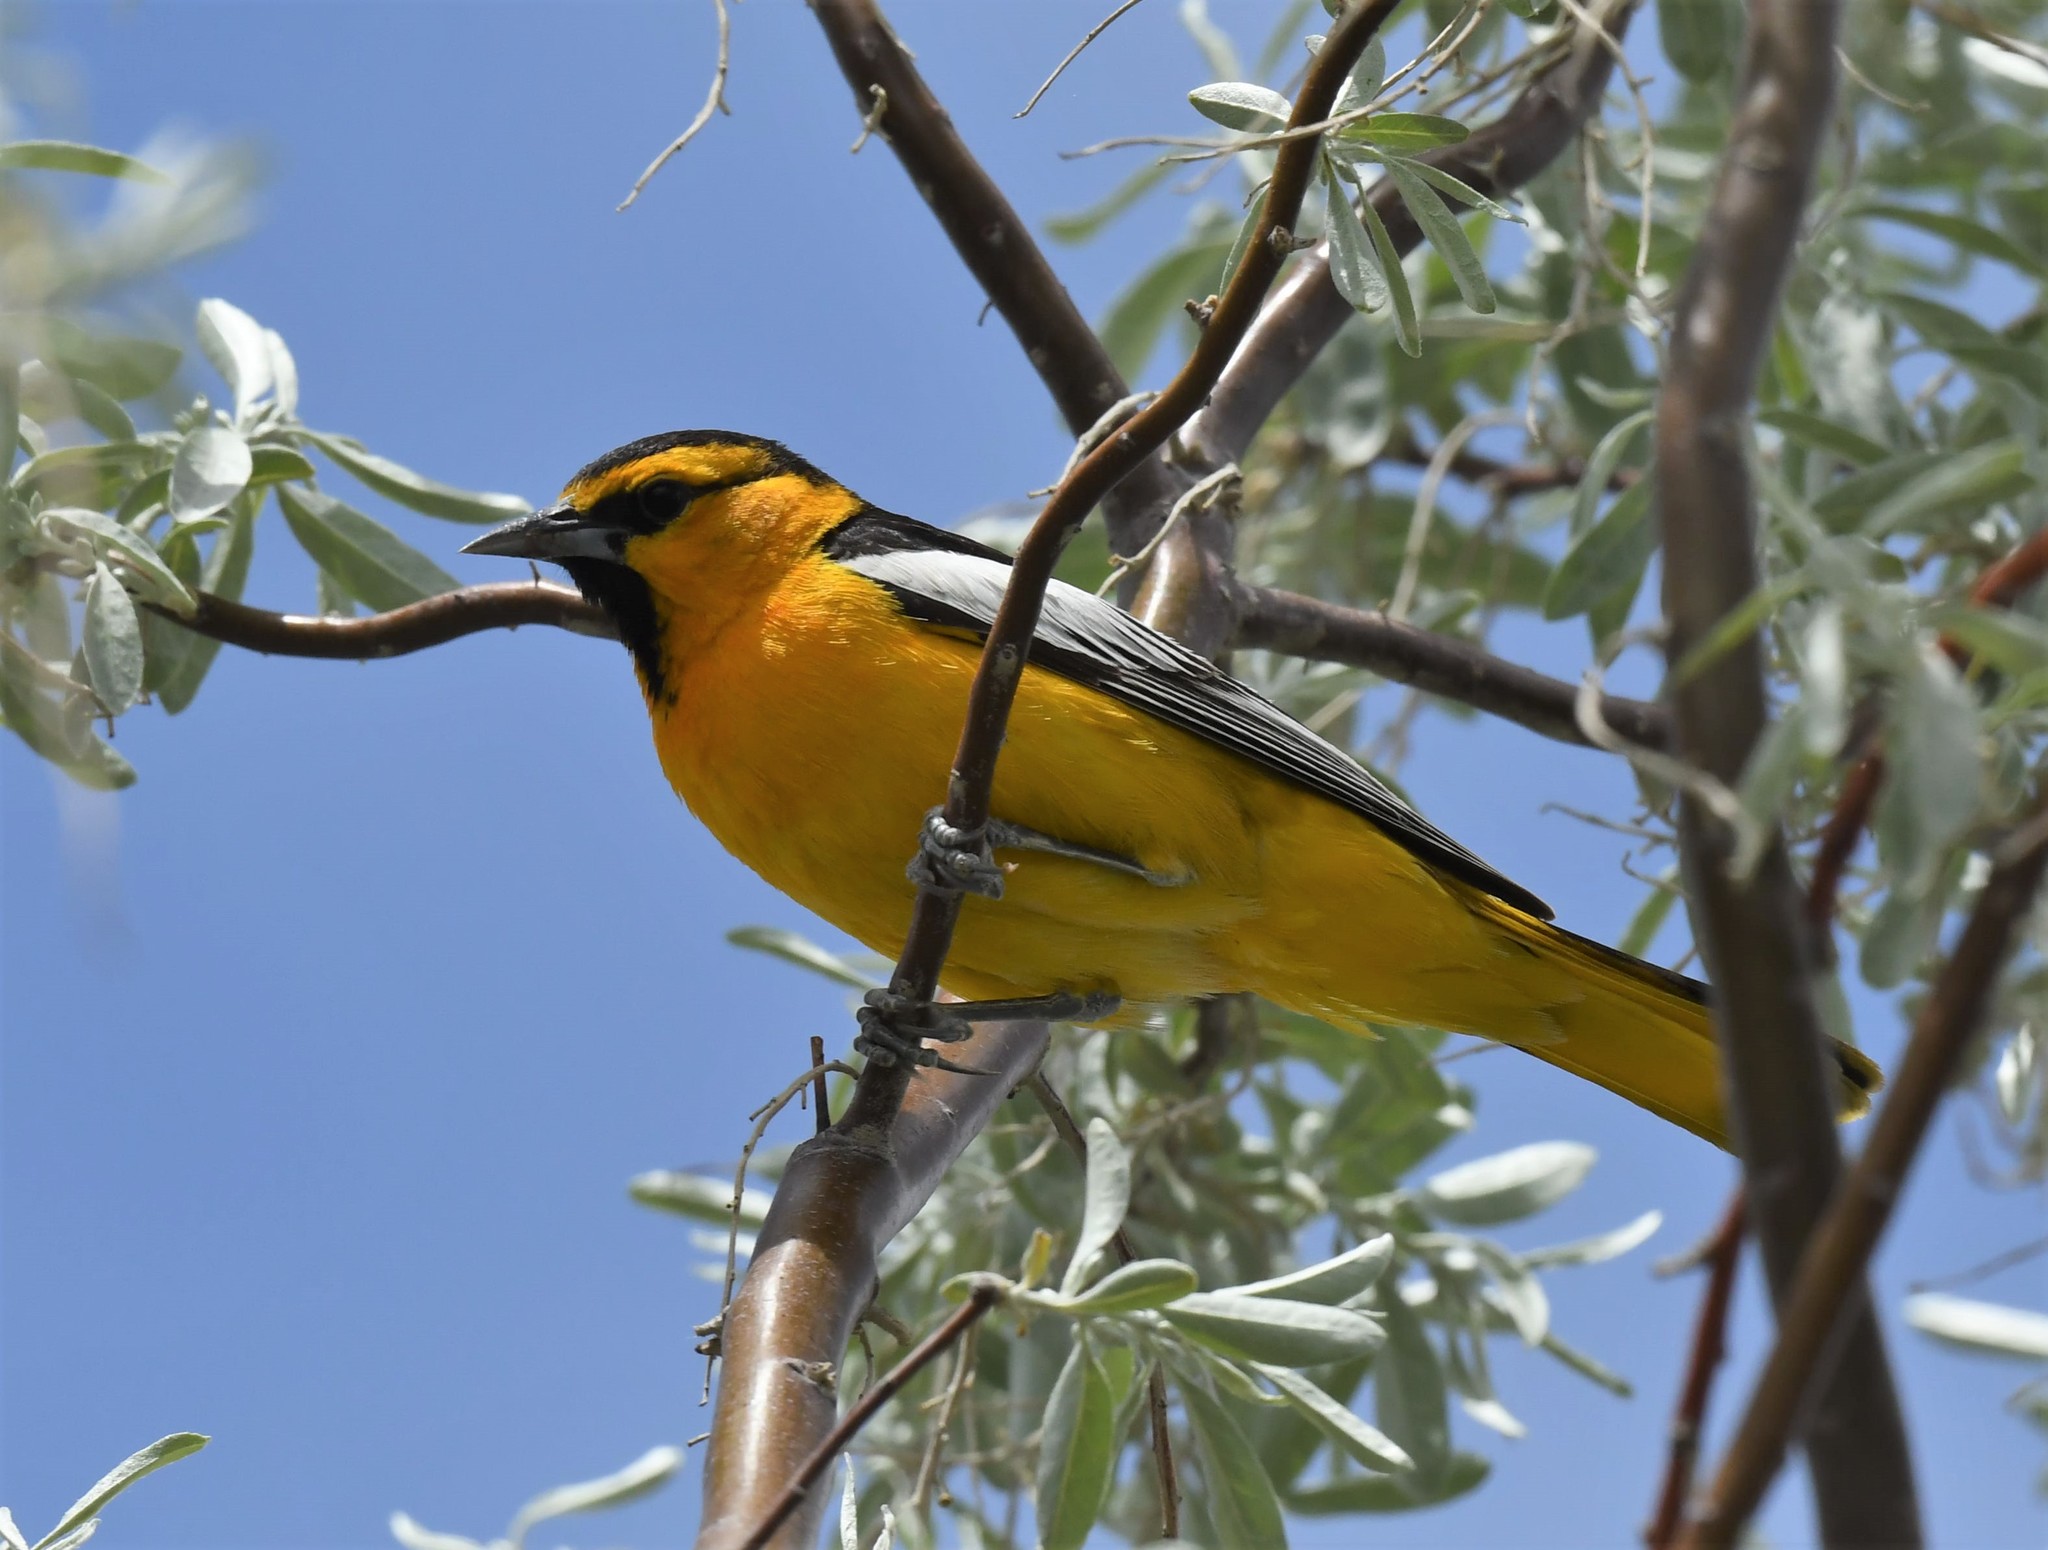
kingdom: Animalia
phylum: Chordata
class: Aves
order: Passeriformes
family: Icteridae
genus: Icterus
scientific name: Icterus bullockii
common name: Bullock's oriole
